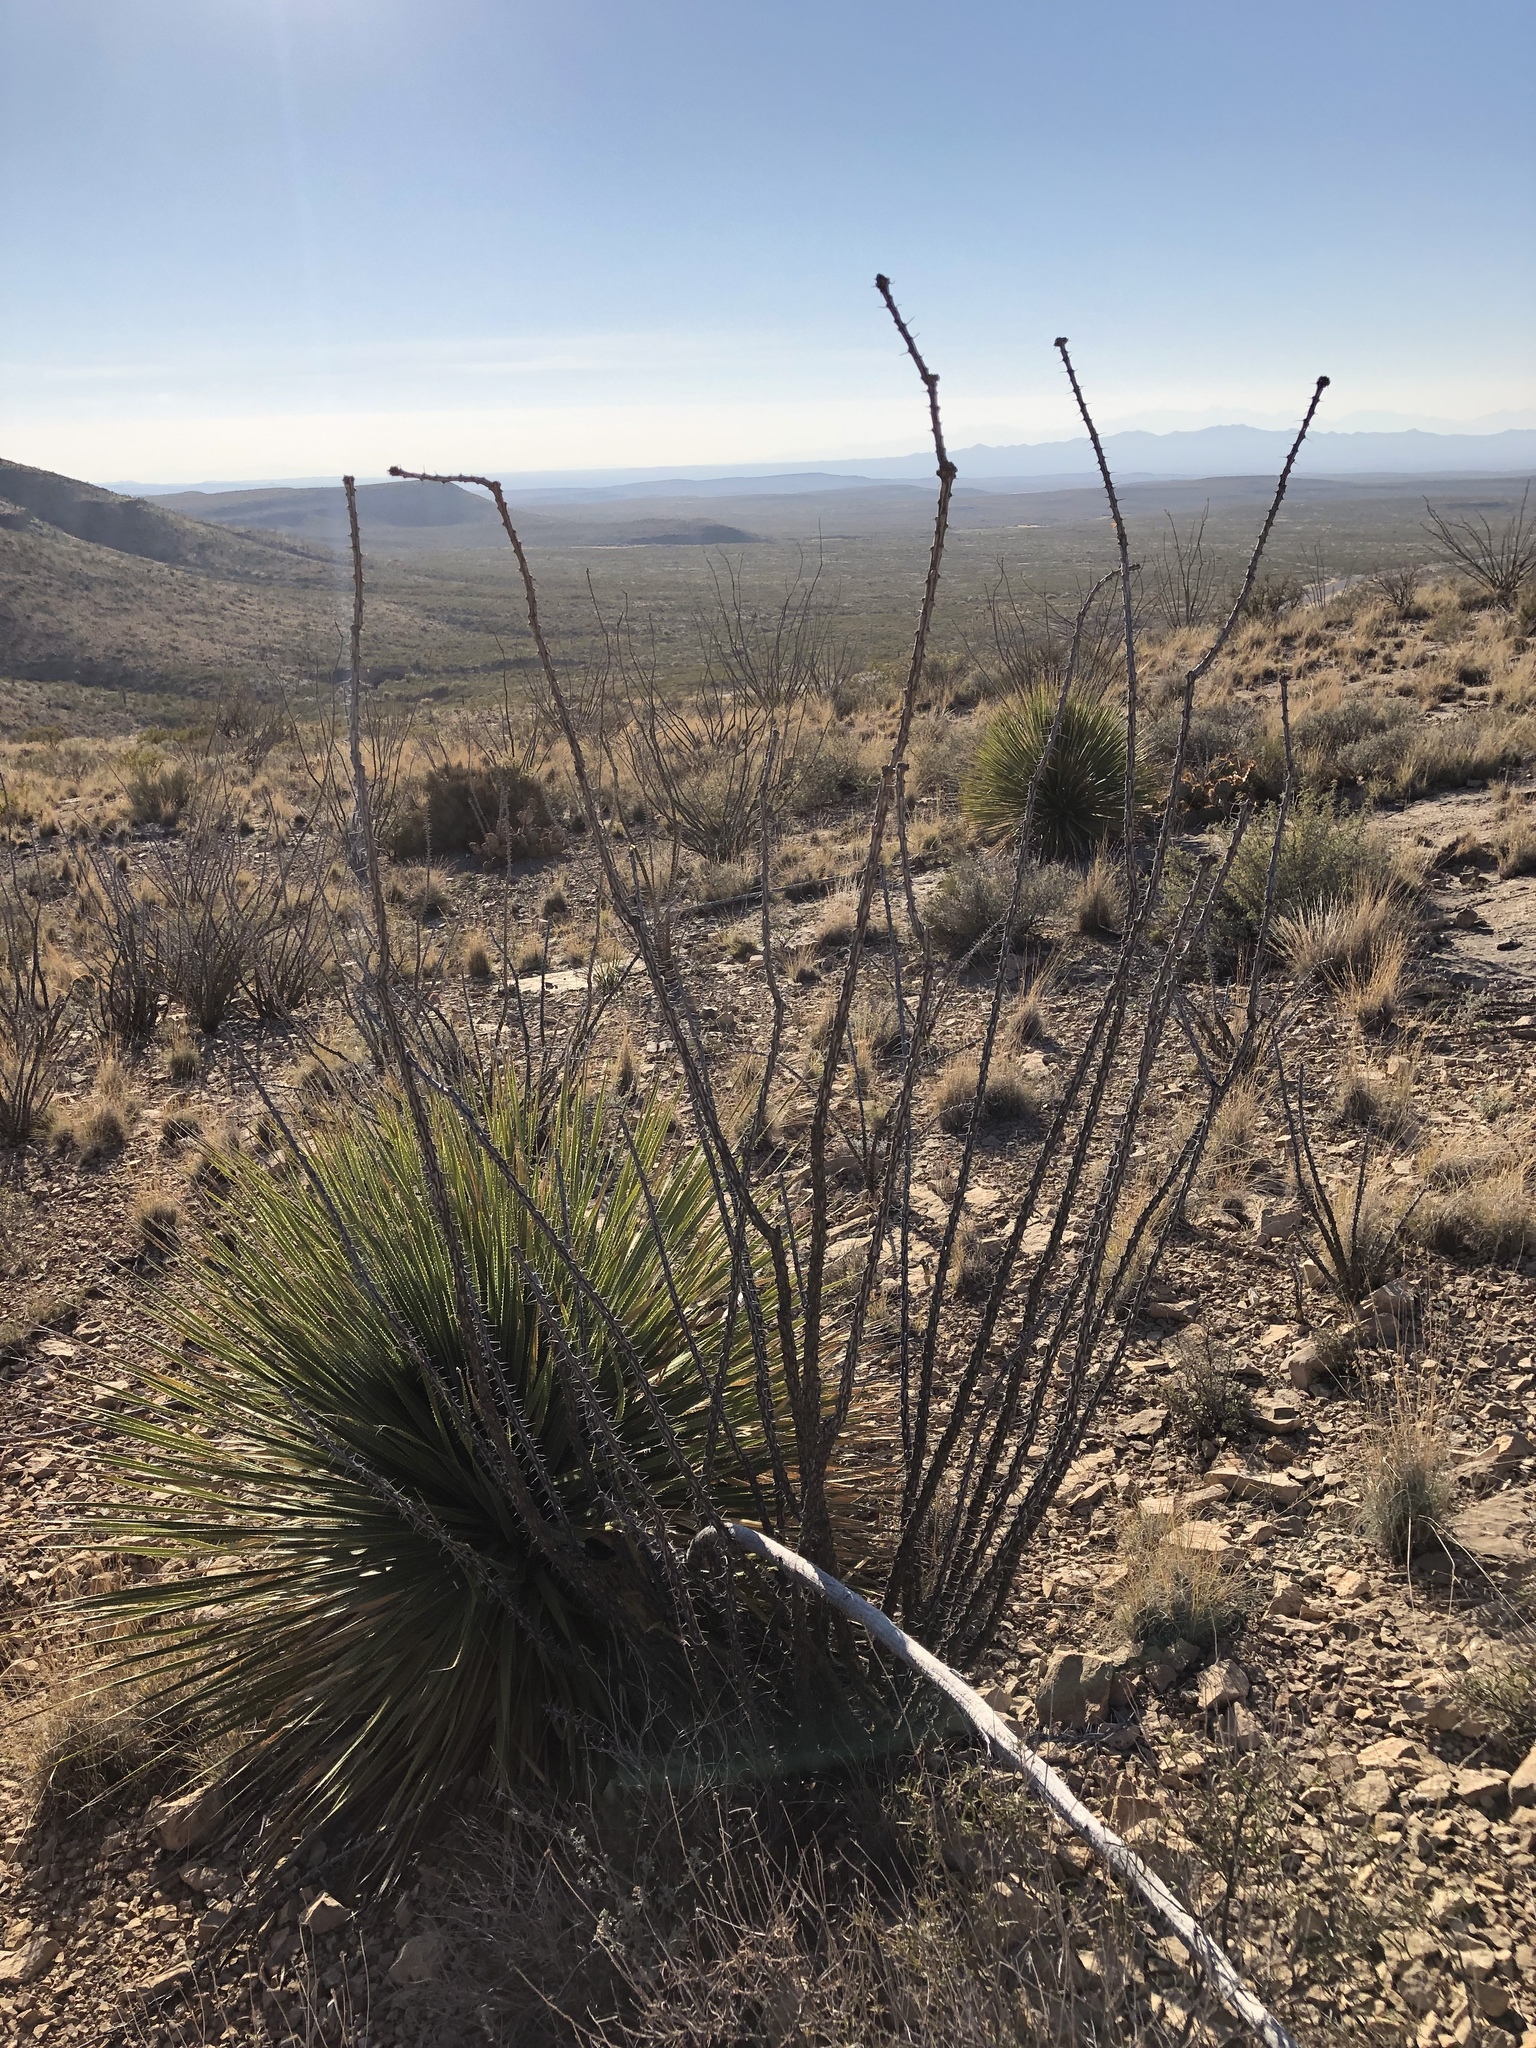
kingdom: Plantae
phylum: Tracheophyta
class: Magnoliopsida
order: Ericales
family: Fouquieriaceae
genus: Fouquieria
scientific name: Fouquieria splendens
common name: Vine-cactus
